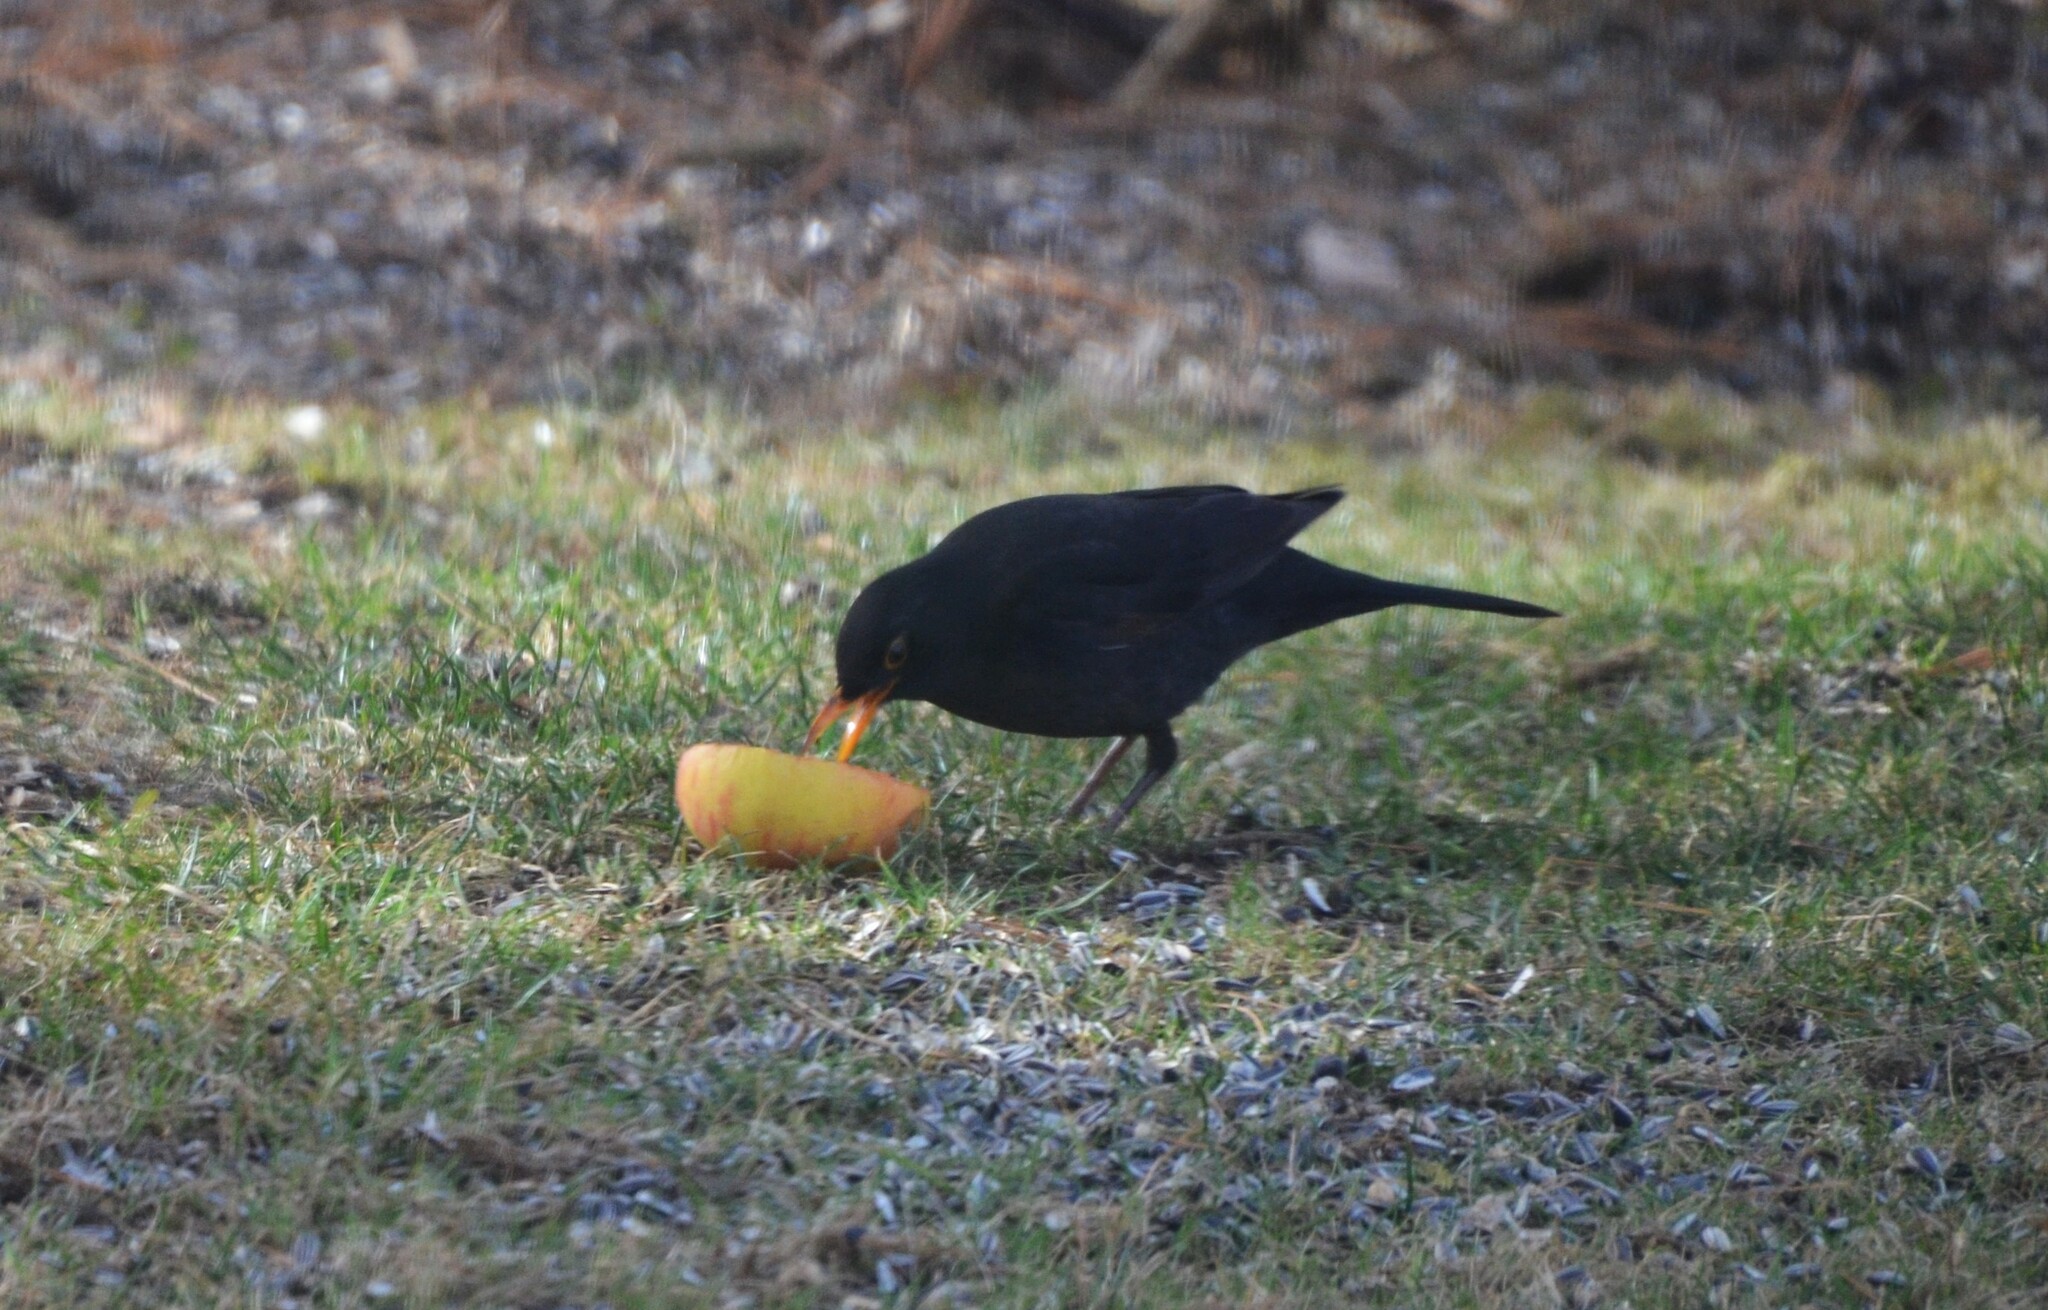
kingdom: Animalia
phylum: Chordata
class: Aves
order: Passeriformes
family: Turdidae
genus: Turdus
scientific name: Turdus merula
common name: Common blackbird
